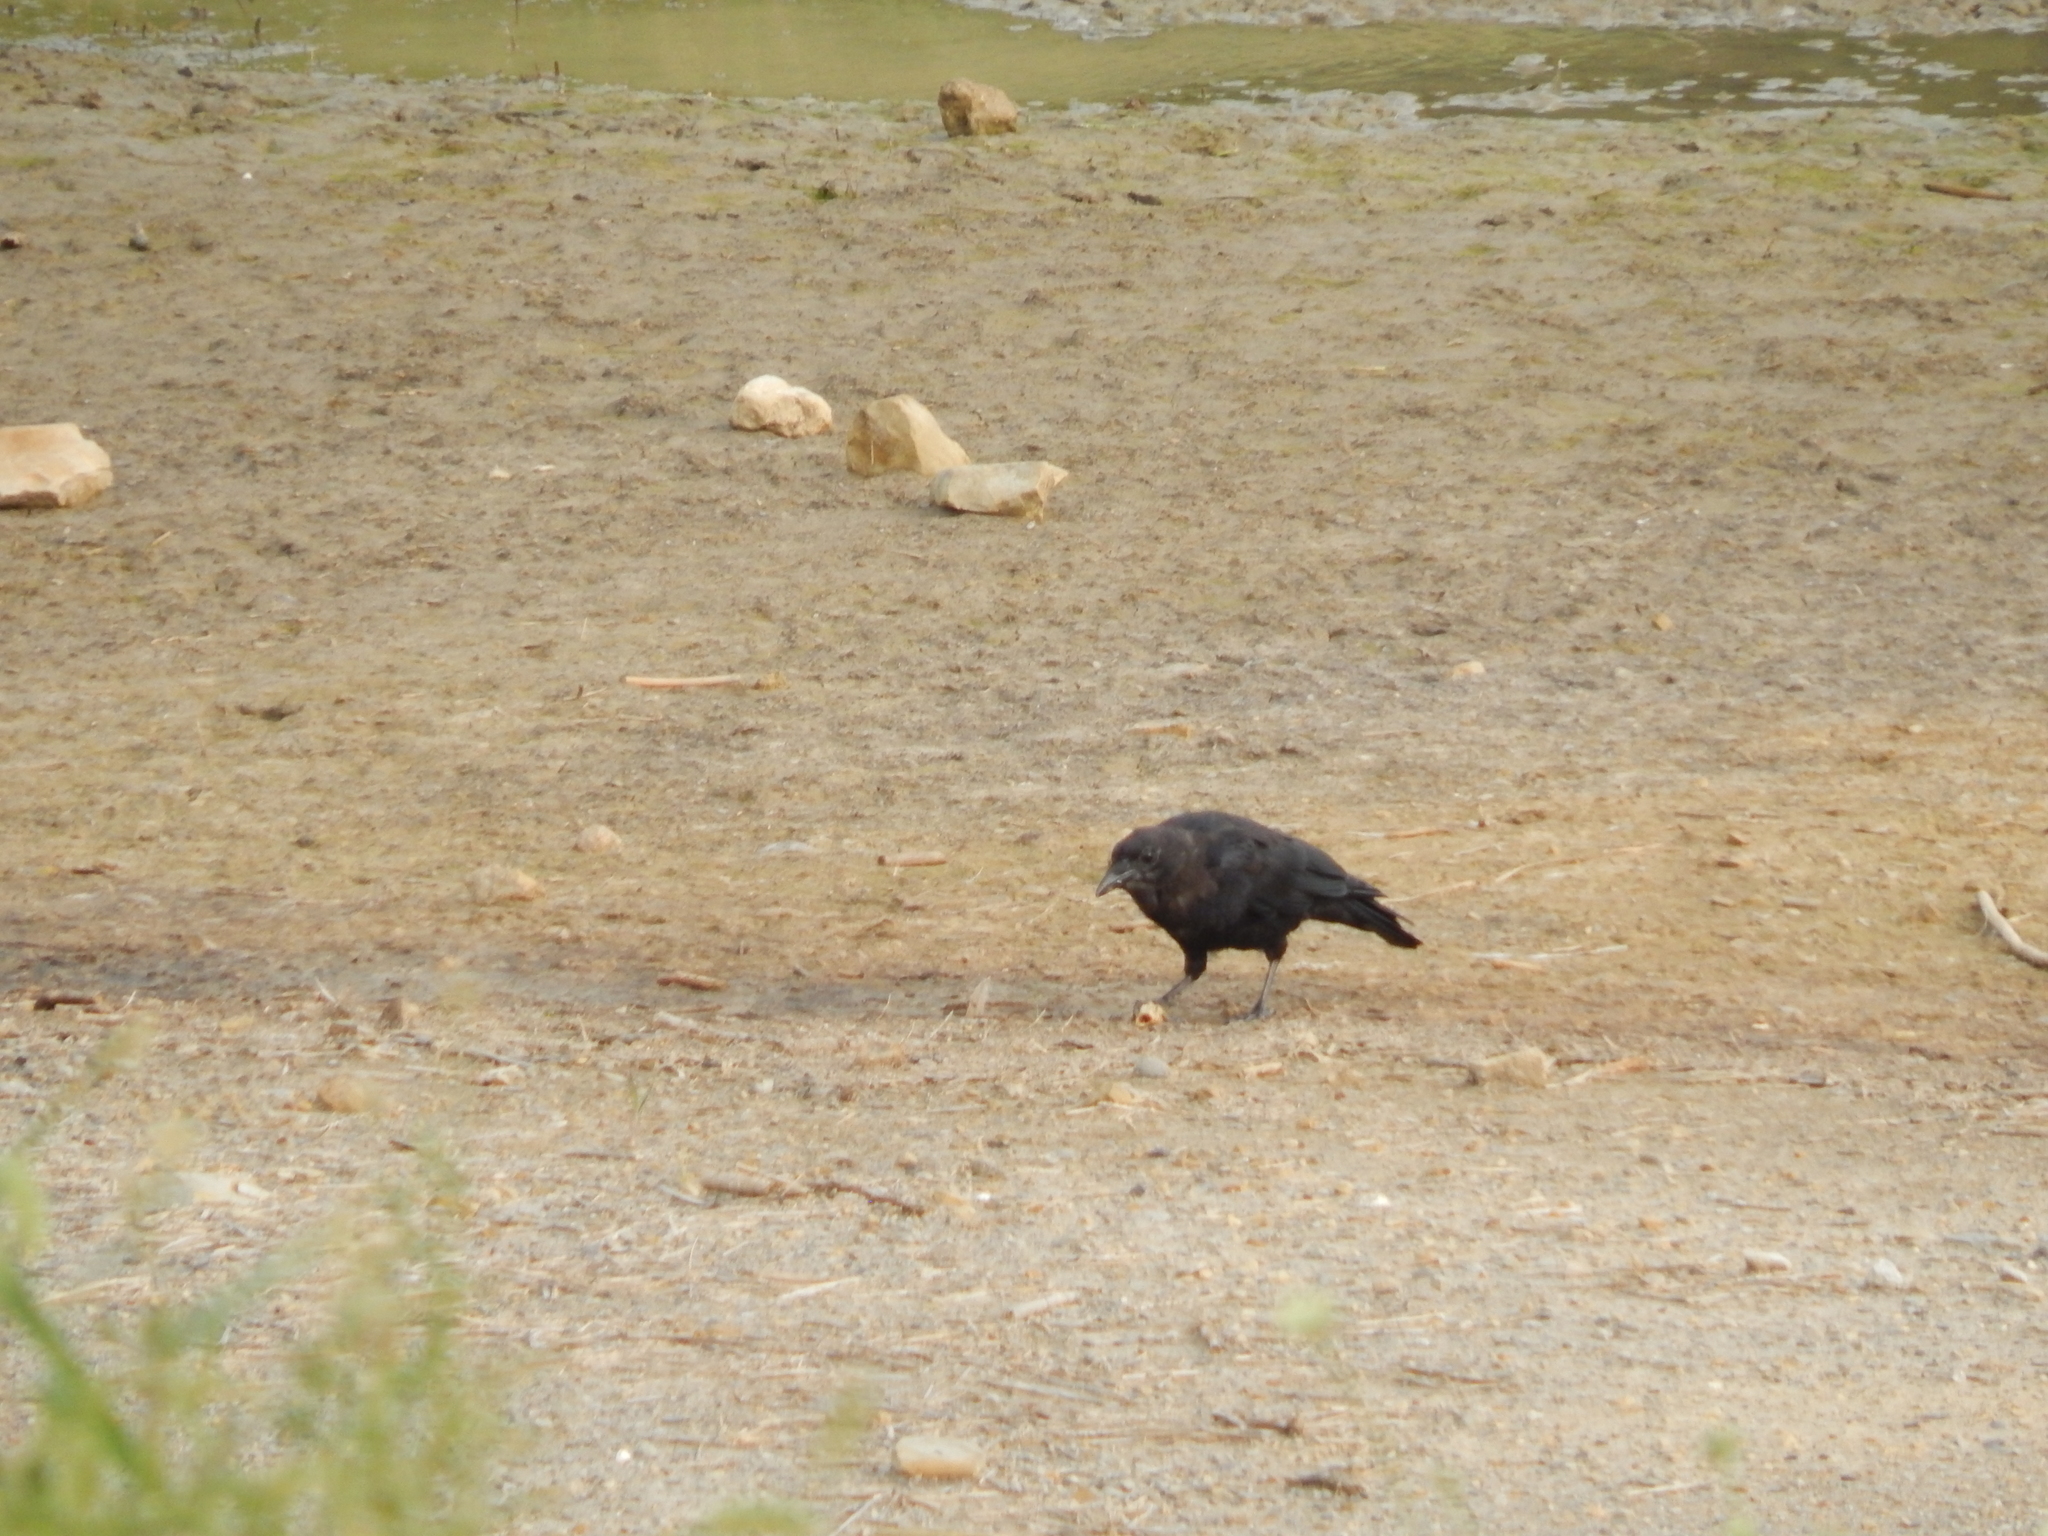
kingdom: Animalia
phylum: Chordata
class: Aves
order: Passeriformes
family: Corvidae
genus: Corvus
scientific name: Corvus brachyrhynchos
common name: American crow
